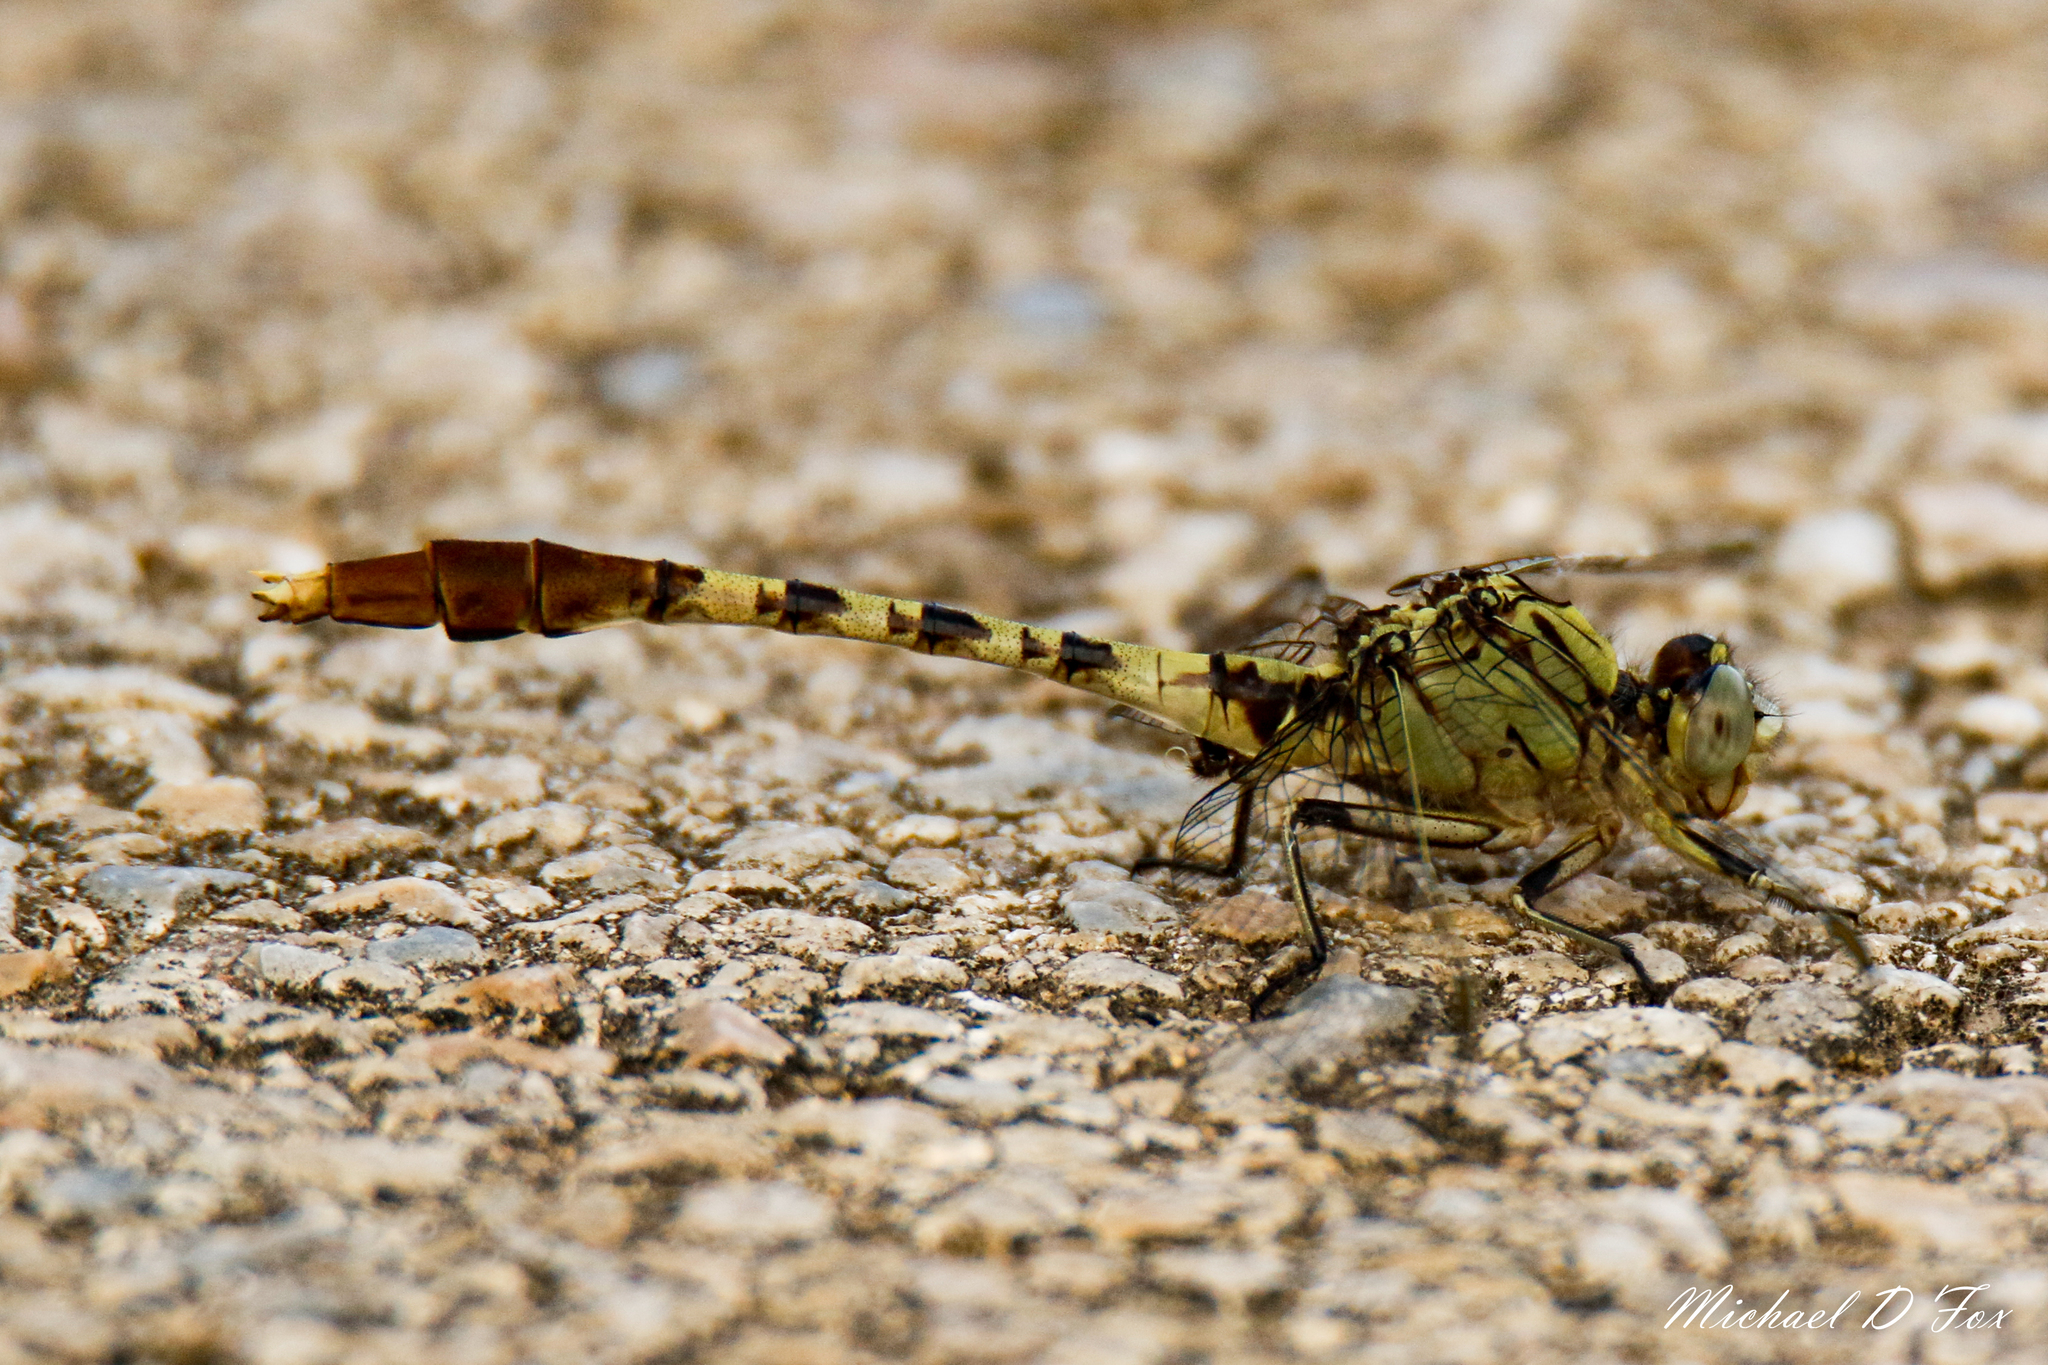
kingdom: Animalia
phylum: Arthropoda
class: Insecta
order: Odonata
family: Gomphidae
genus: Arigomphus
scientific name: Arigomphus submedianus
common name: Jade clubtail
